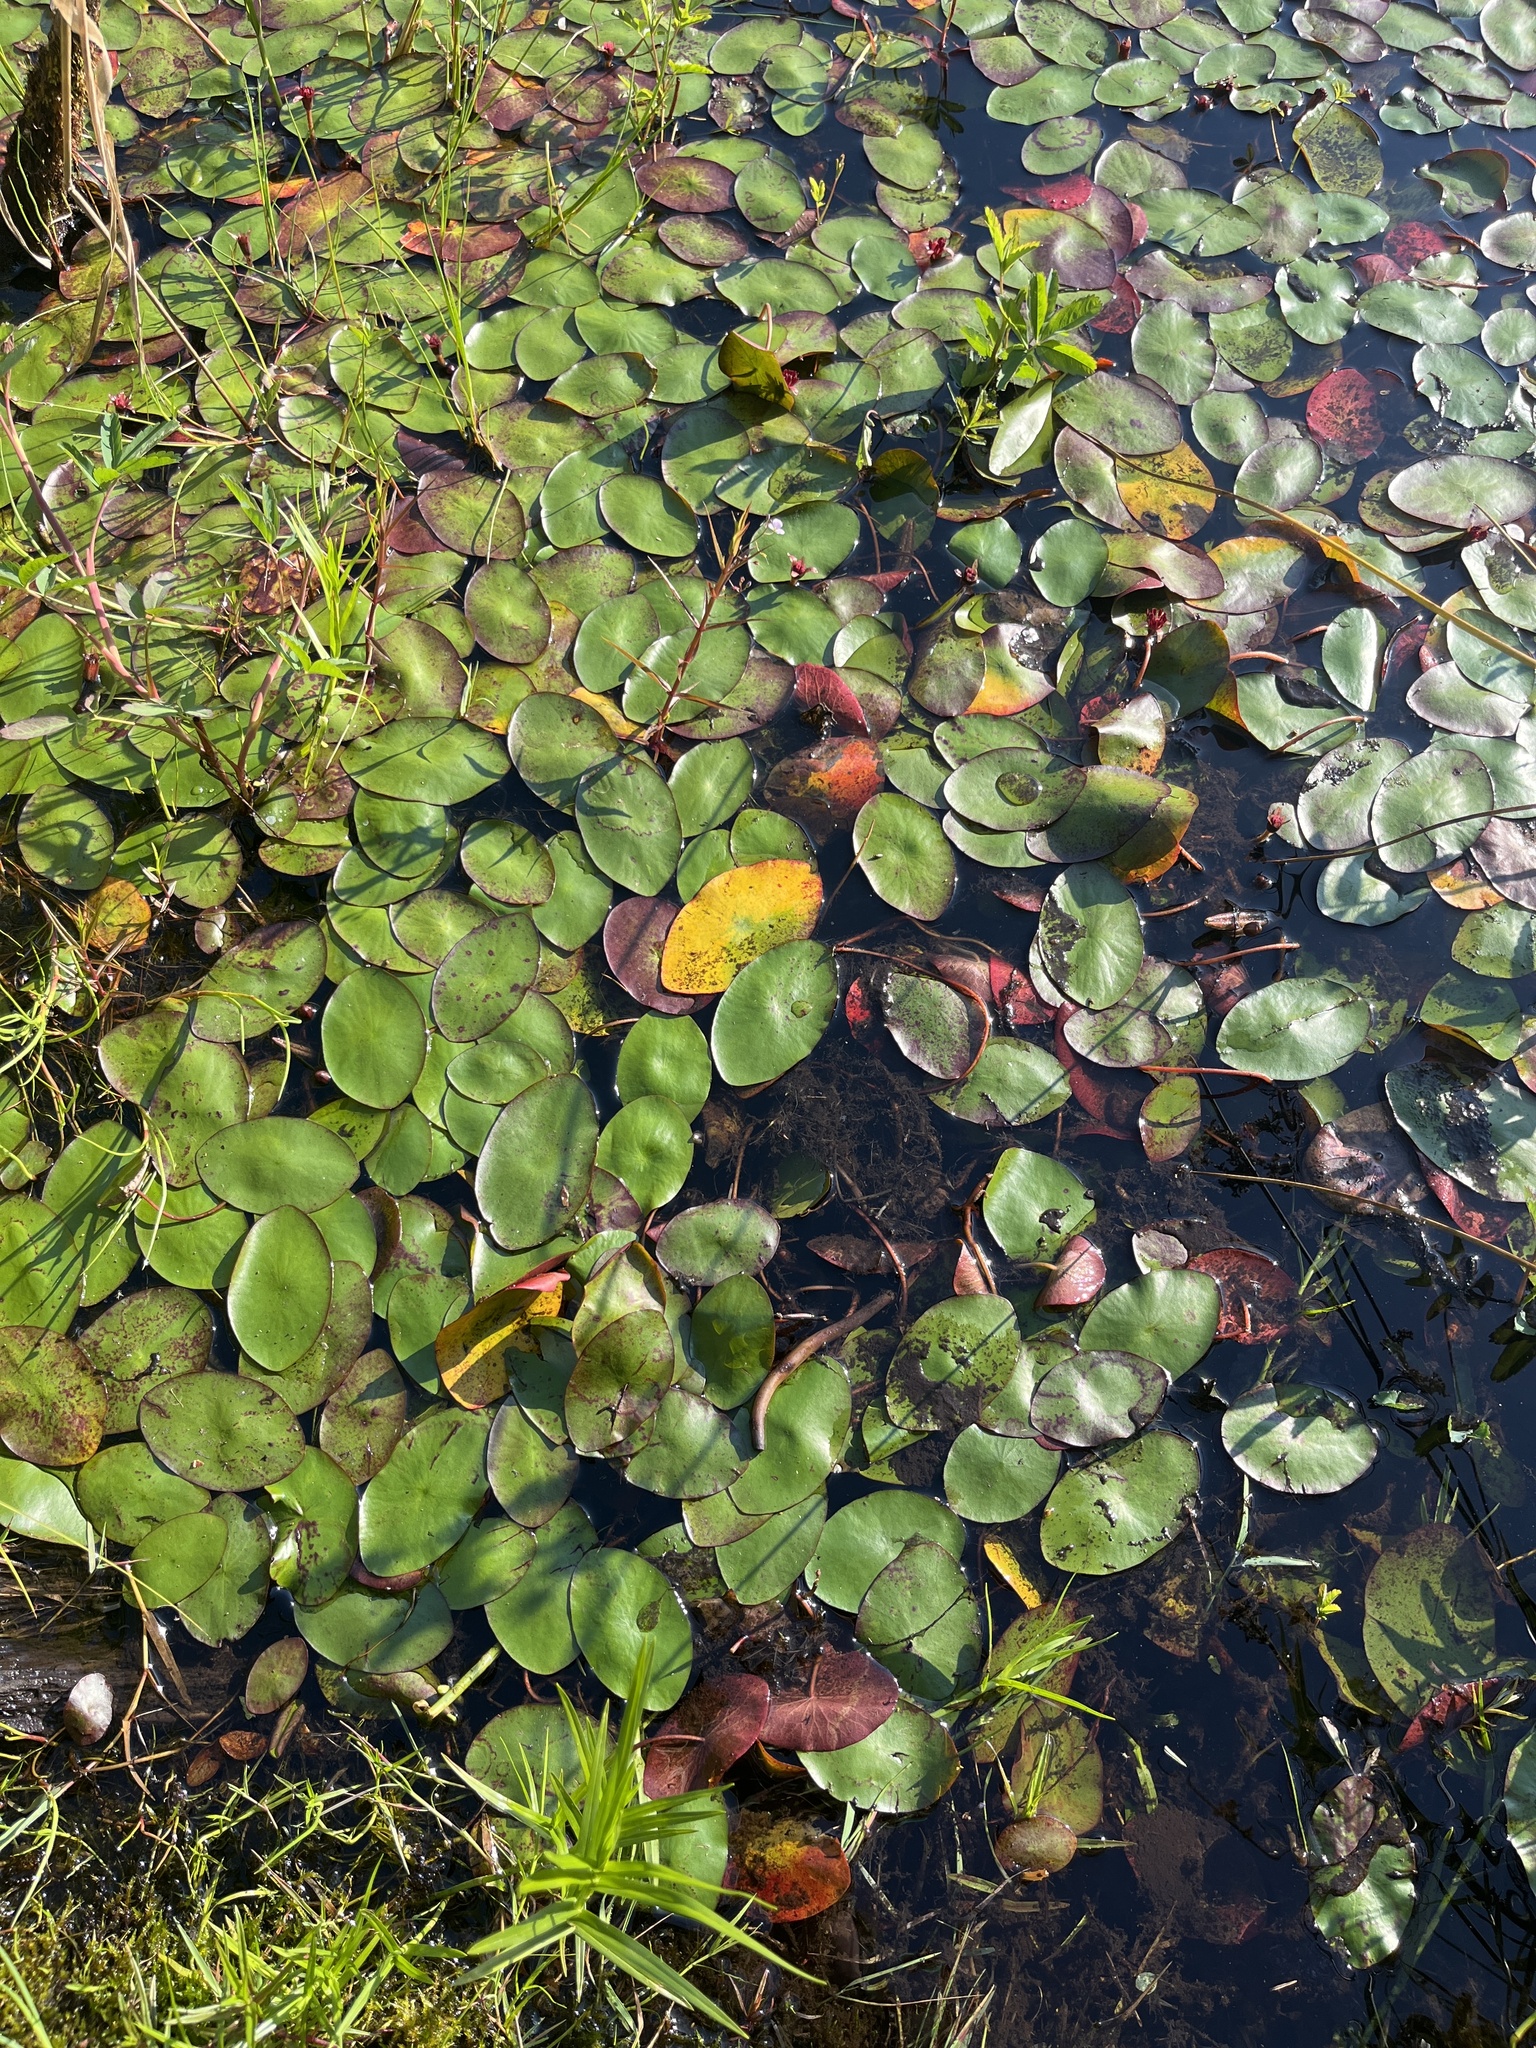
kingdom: Plantae
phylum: Tracheophyta
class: Magnoliopsida
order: Nymphaeales
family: Cabombaceae
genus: Brasenia
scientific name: Brasenia schreberi
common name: Water-shield
